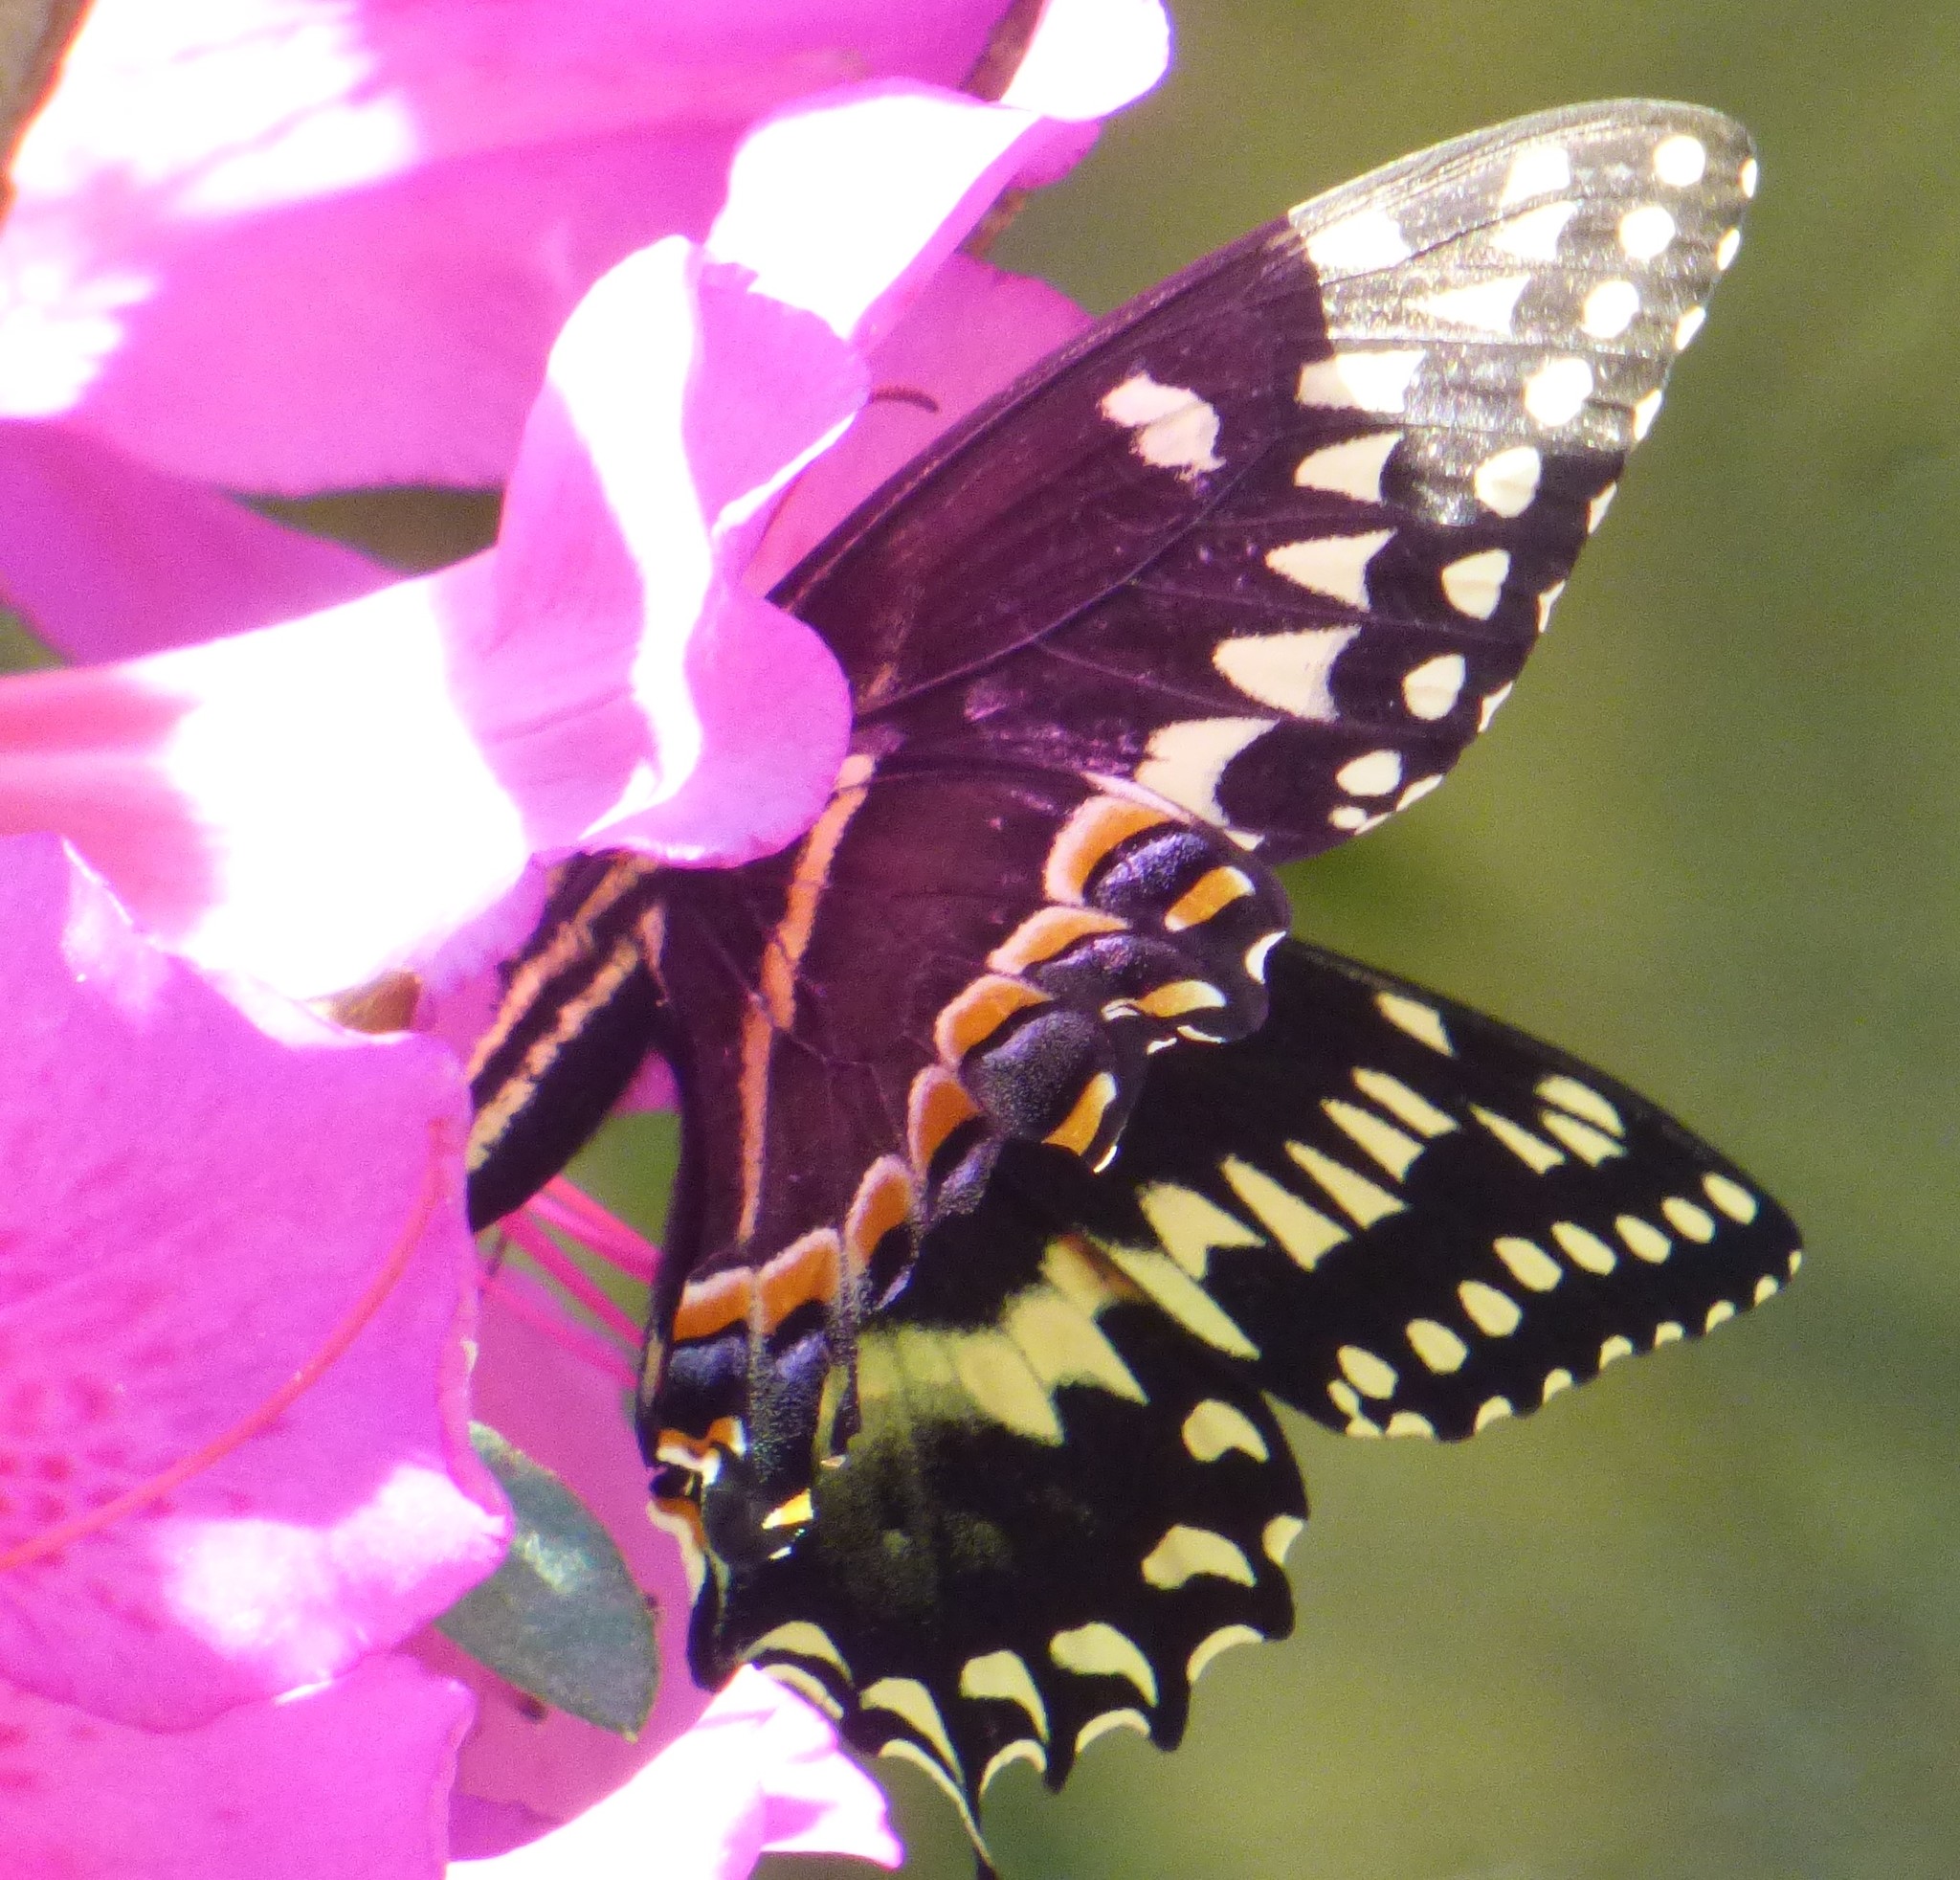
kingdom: Animalia
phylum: Arthropoda
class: Insecta
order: Lepidoptera
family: Papilionidae
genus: Papilio
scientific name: Papilio palamedes
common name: Palamedes swallowtail
